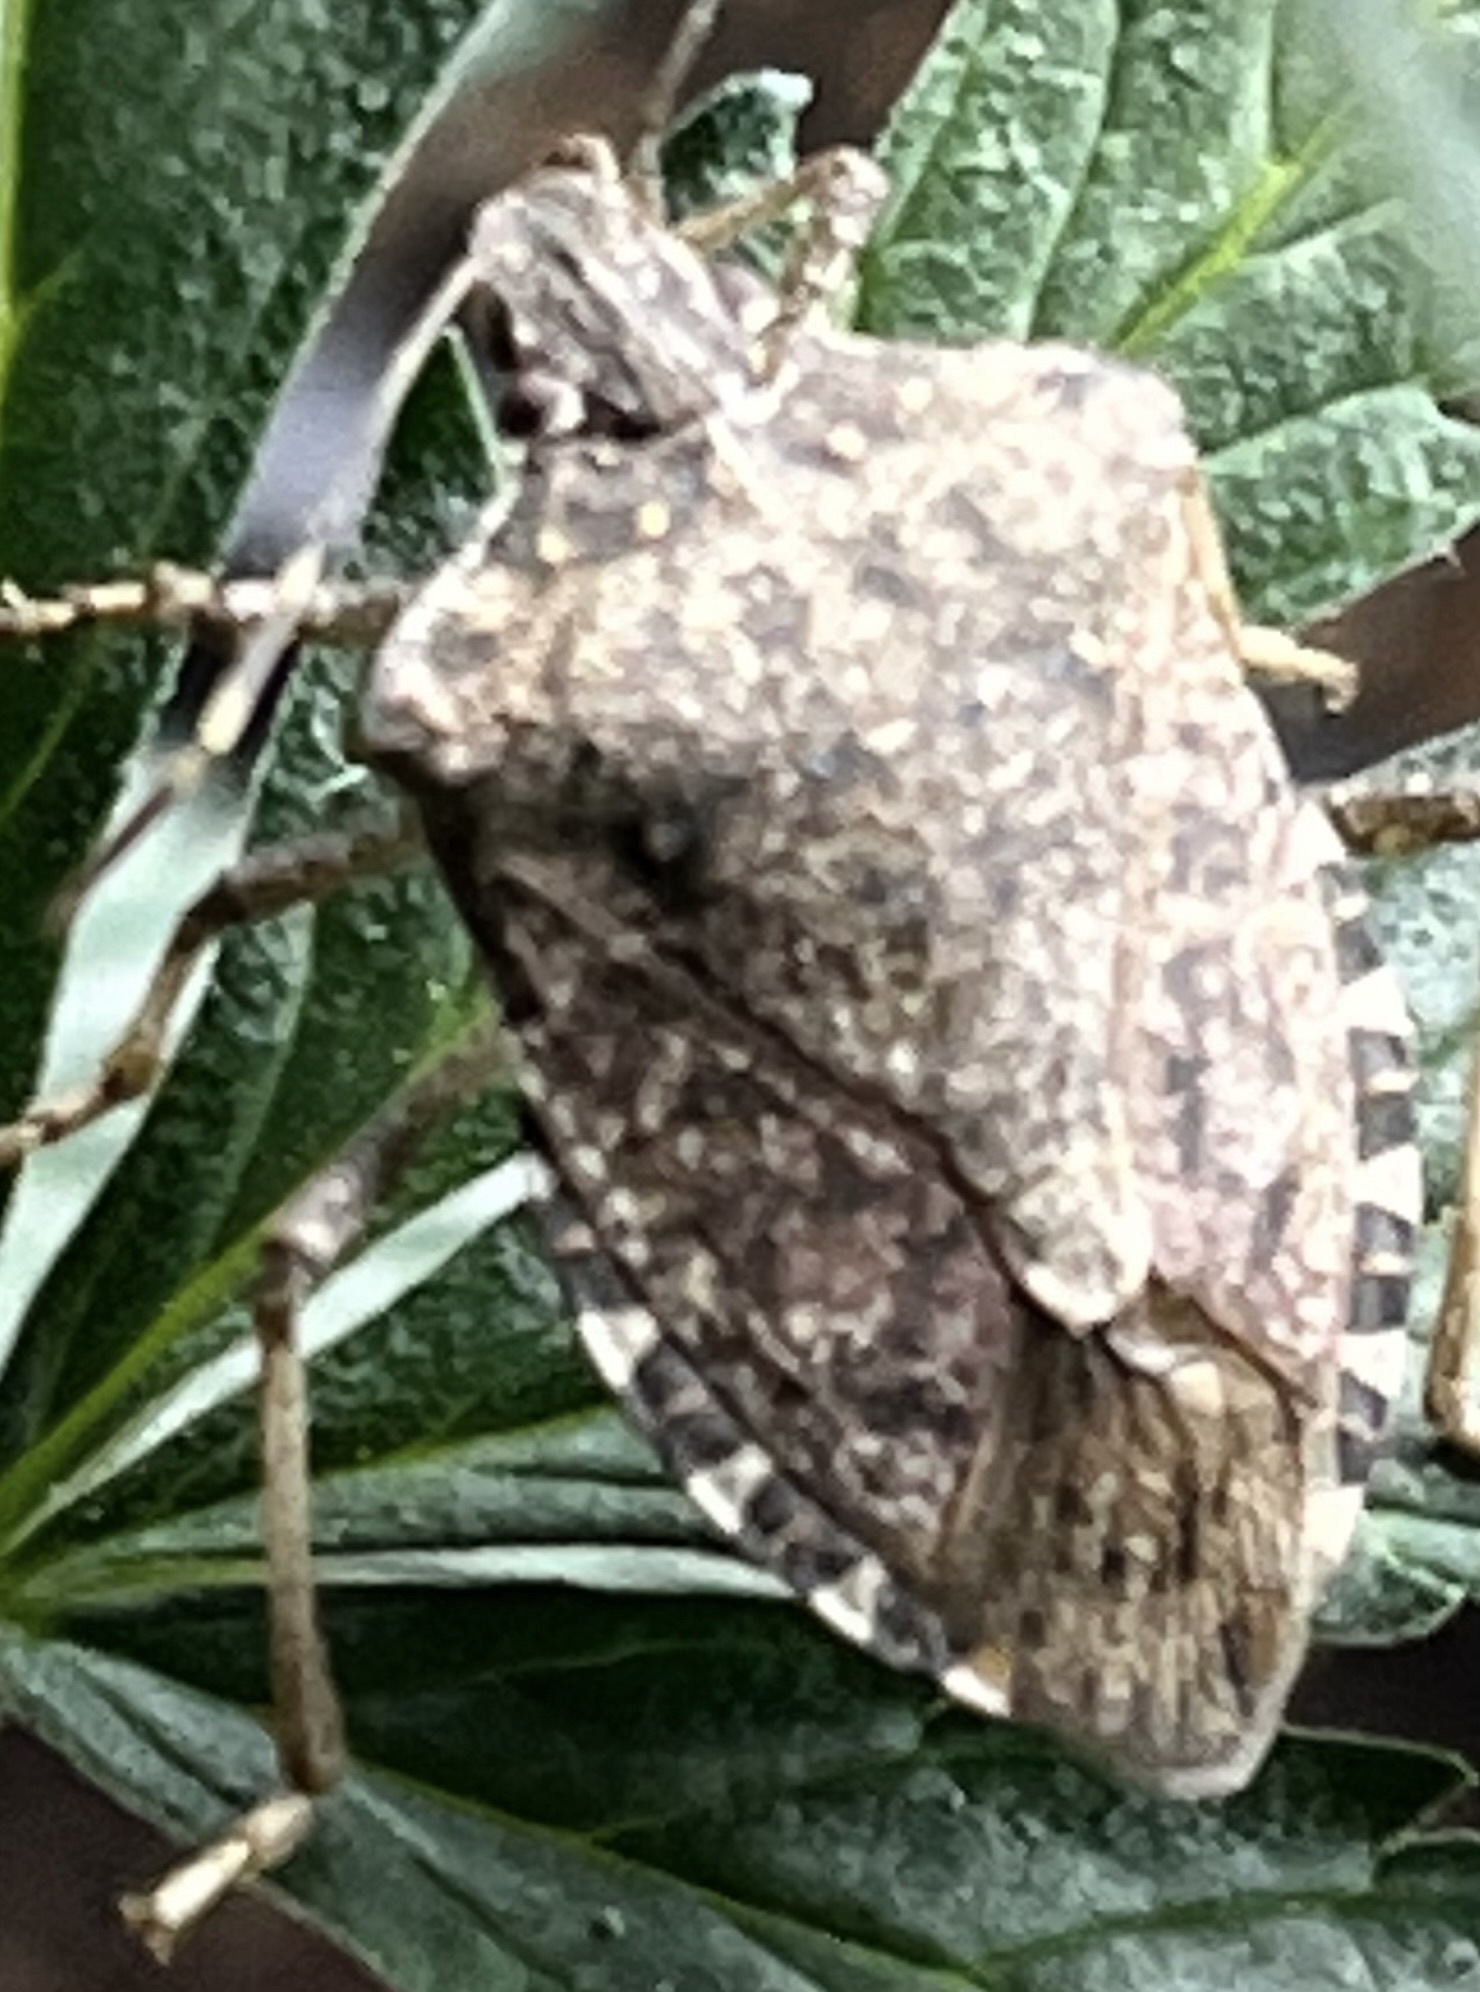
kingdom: Animalia
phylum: Arthropoda
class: Insecta
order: Hemiptera
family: Pentatomidae
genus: Halyomorpha
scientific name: Halyomorpha halys
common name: Brown marmorated stink bug
